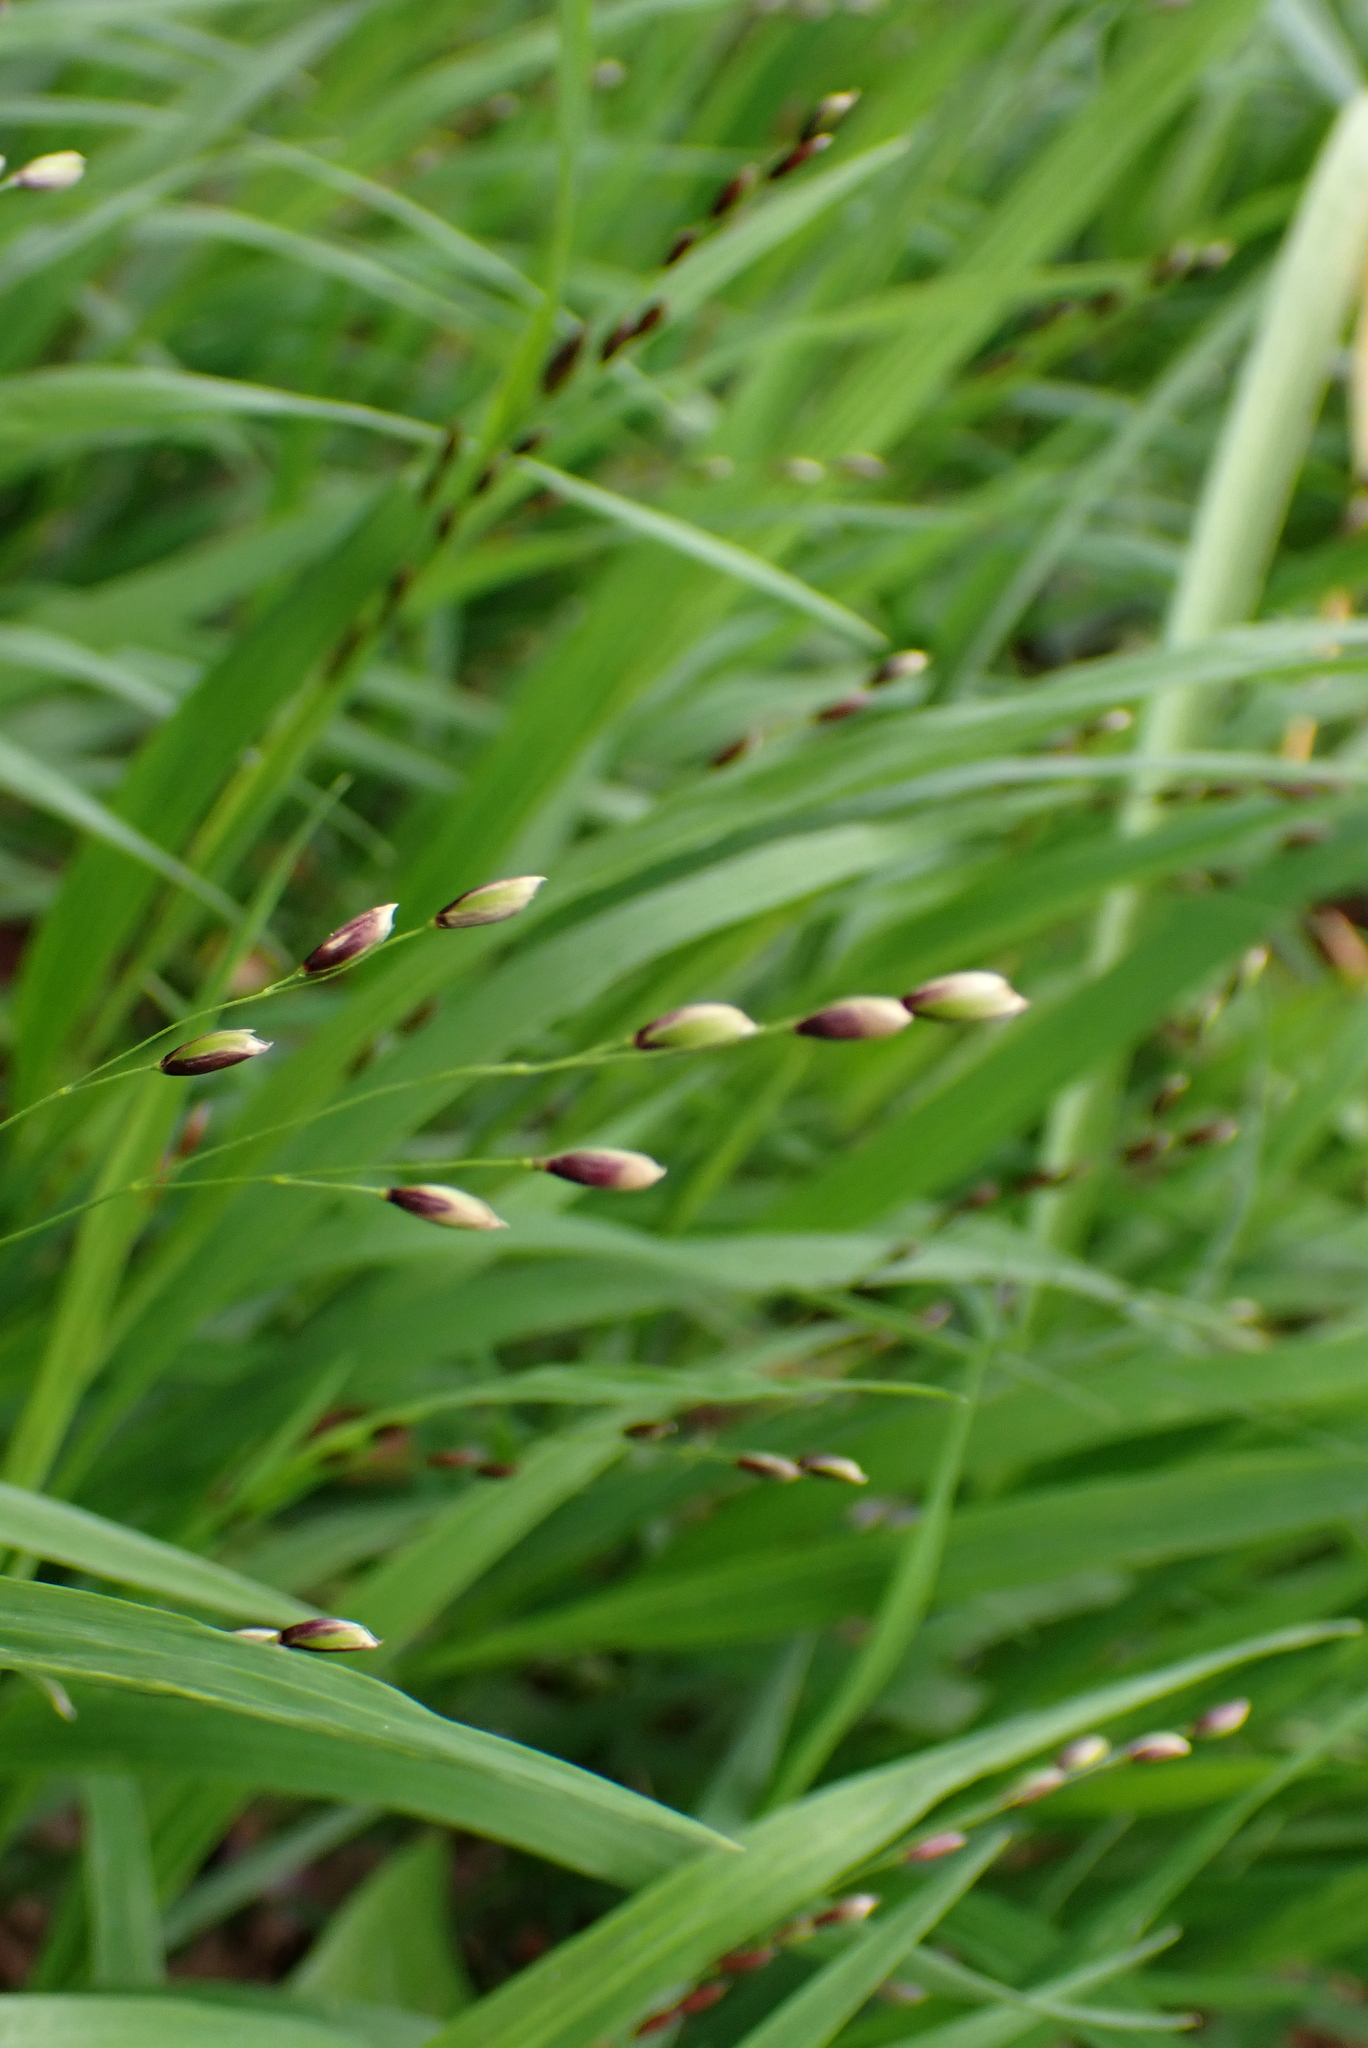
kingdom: Plantae
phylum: Tracheophyta
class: Liliopsida
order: Poales
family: Poaceae
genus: Melica
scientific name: Melica uniflora
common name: Wood melick
